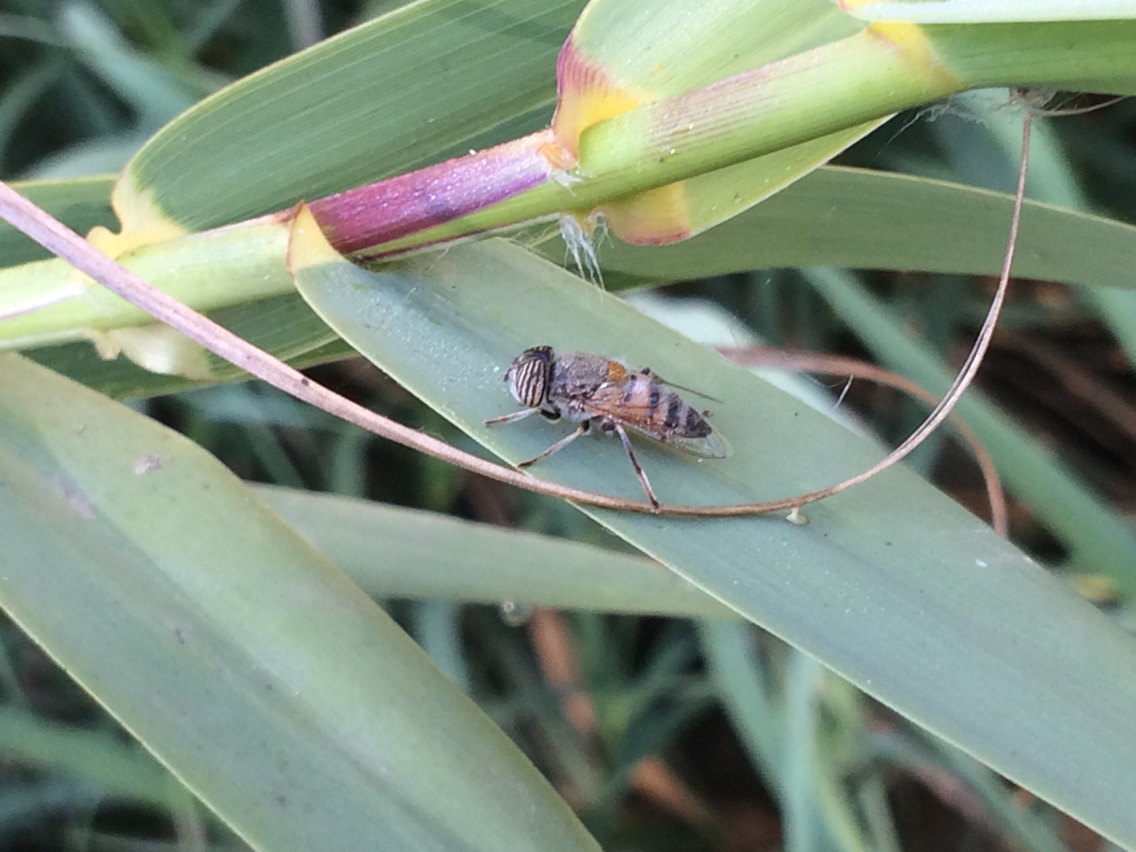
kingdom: Animalia
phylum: Arthropoda
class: Insecta
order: Diptera
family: Syrphidae
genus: Eristalinus
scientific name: Eristalinus taeniops
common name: Syrphid fly
